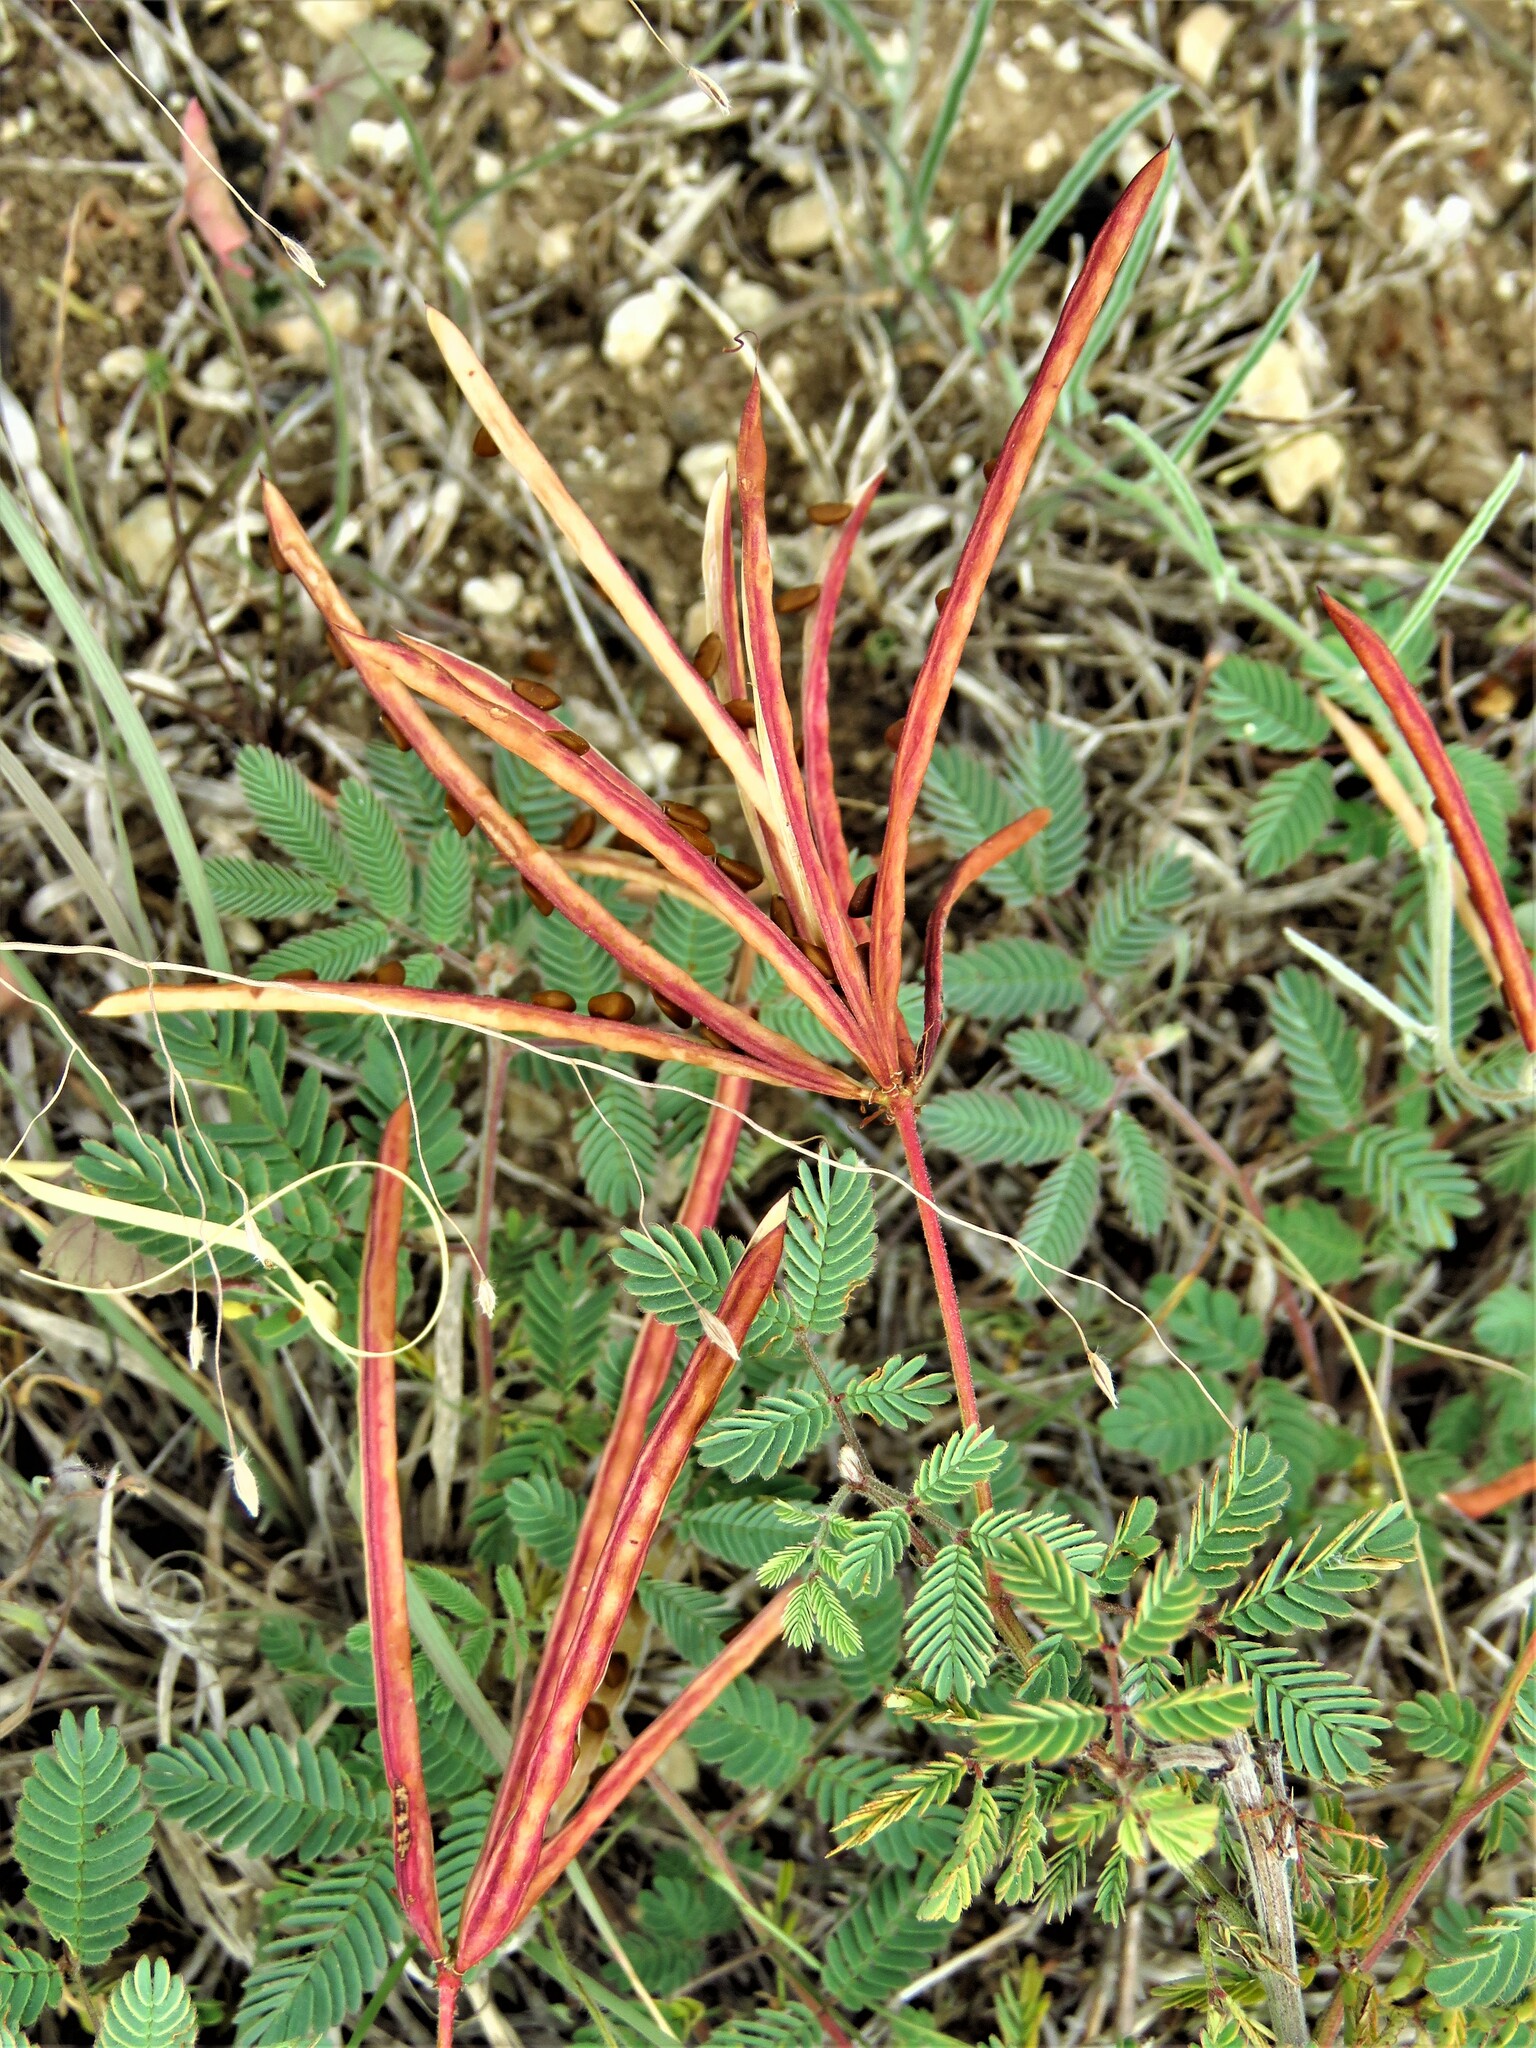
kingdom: Plantae
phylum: Tracheophyta
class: Magnoliopsida
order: Fabales
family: Fabaceae
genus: Desmanthus
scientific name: Desmanthus velutinus
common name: Velvet bundle-flower
